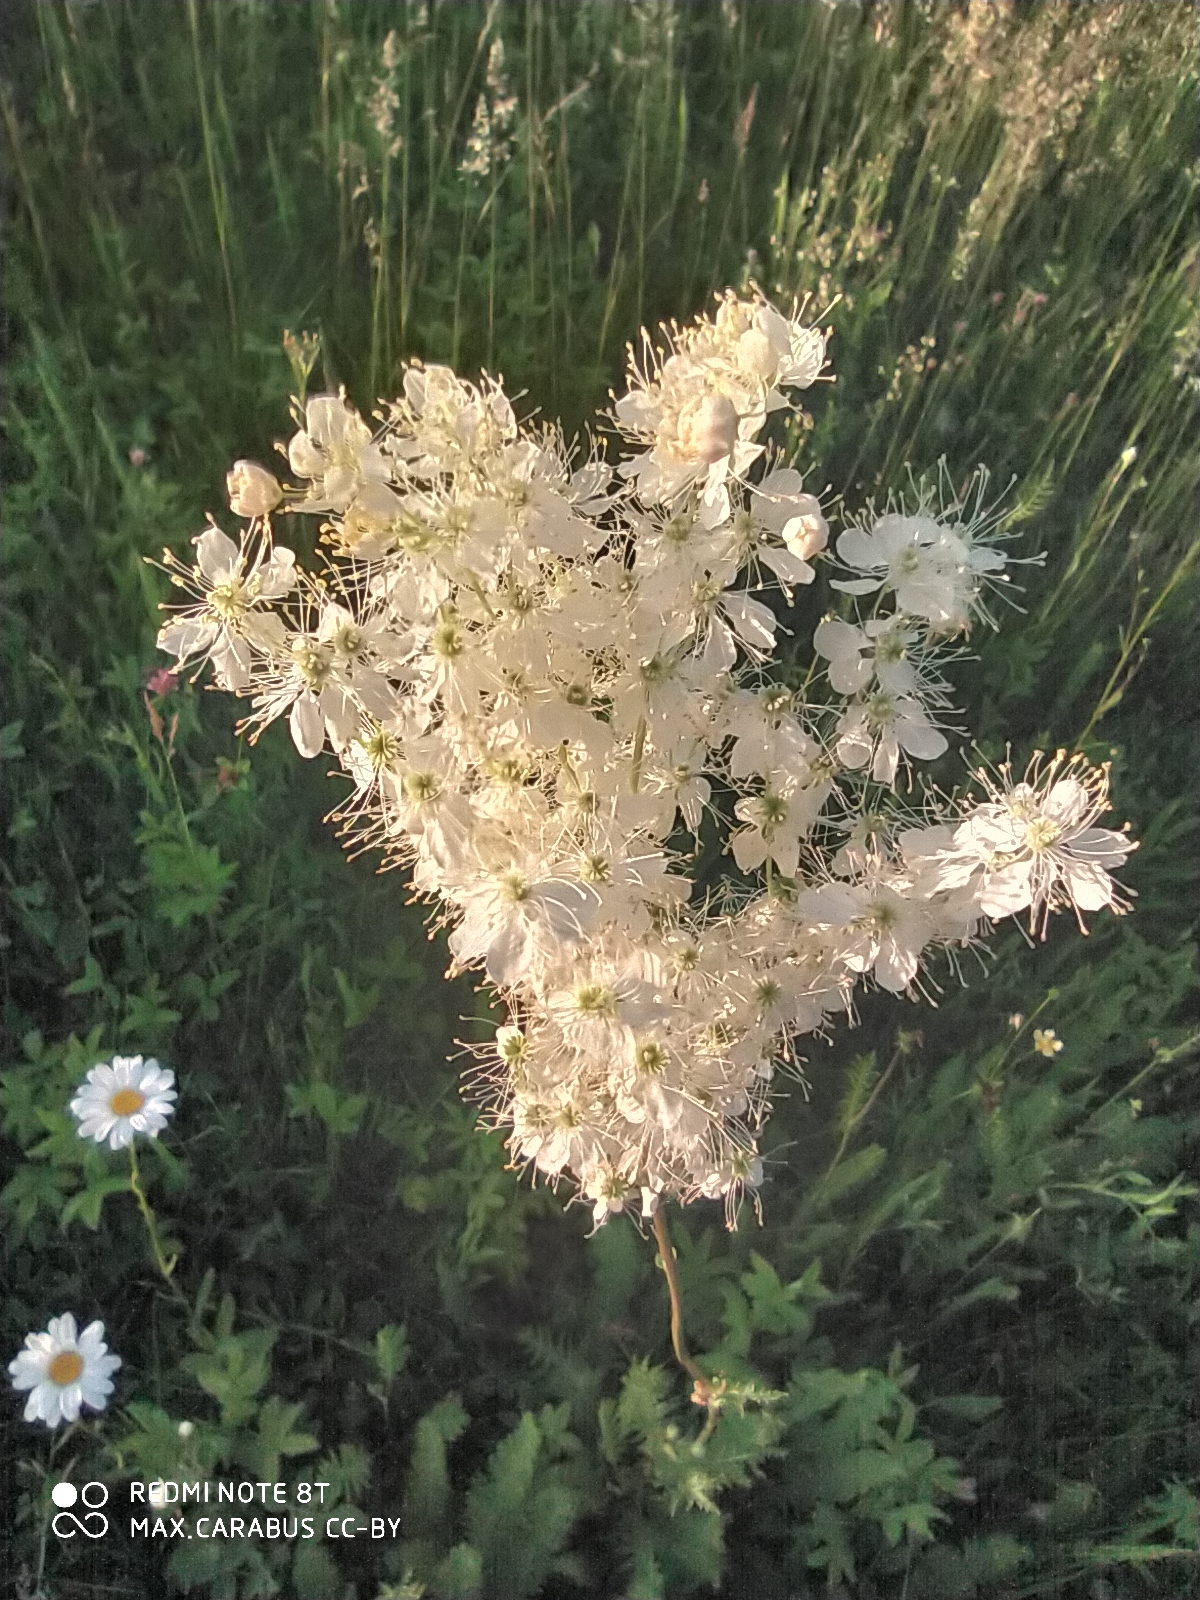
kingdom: Plantae
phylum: Tracheophyta
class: Magnoliopsida
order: Rosales
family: Rosaceae
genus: Filipendula
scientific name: Filipendula vulgaris
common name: Dropwort
